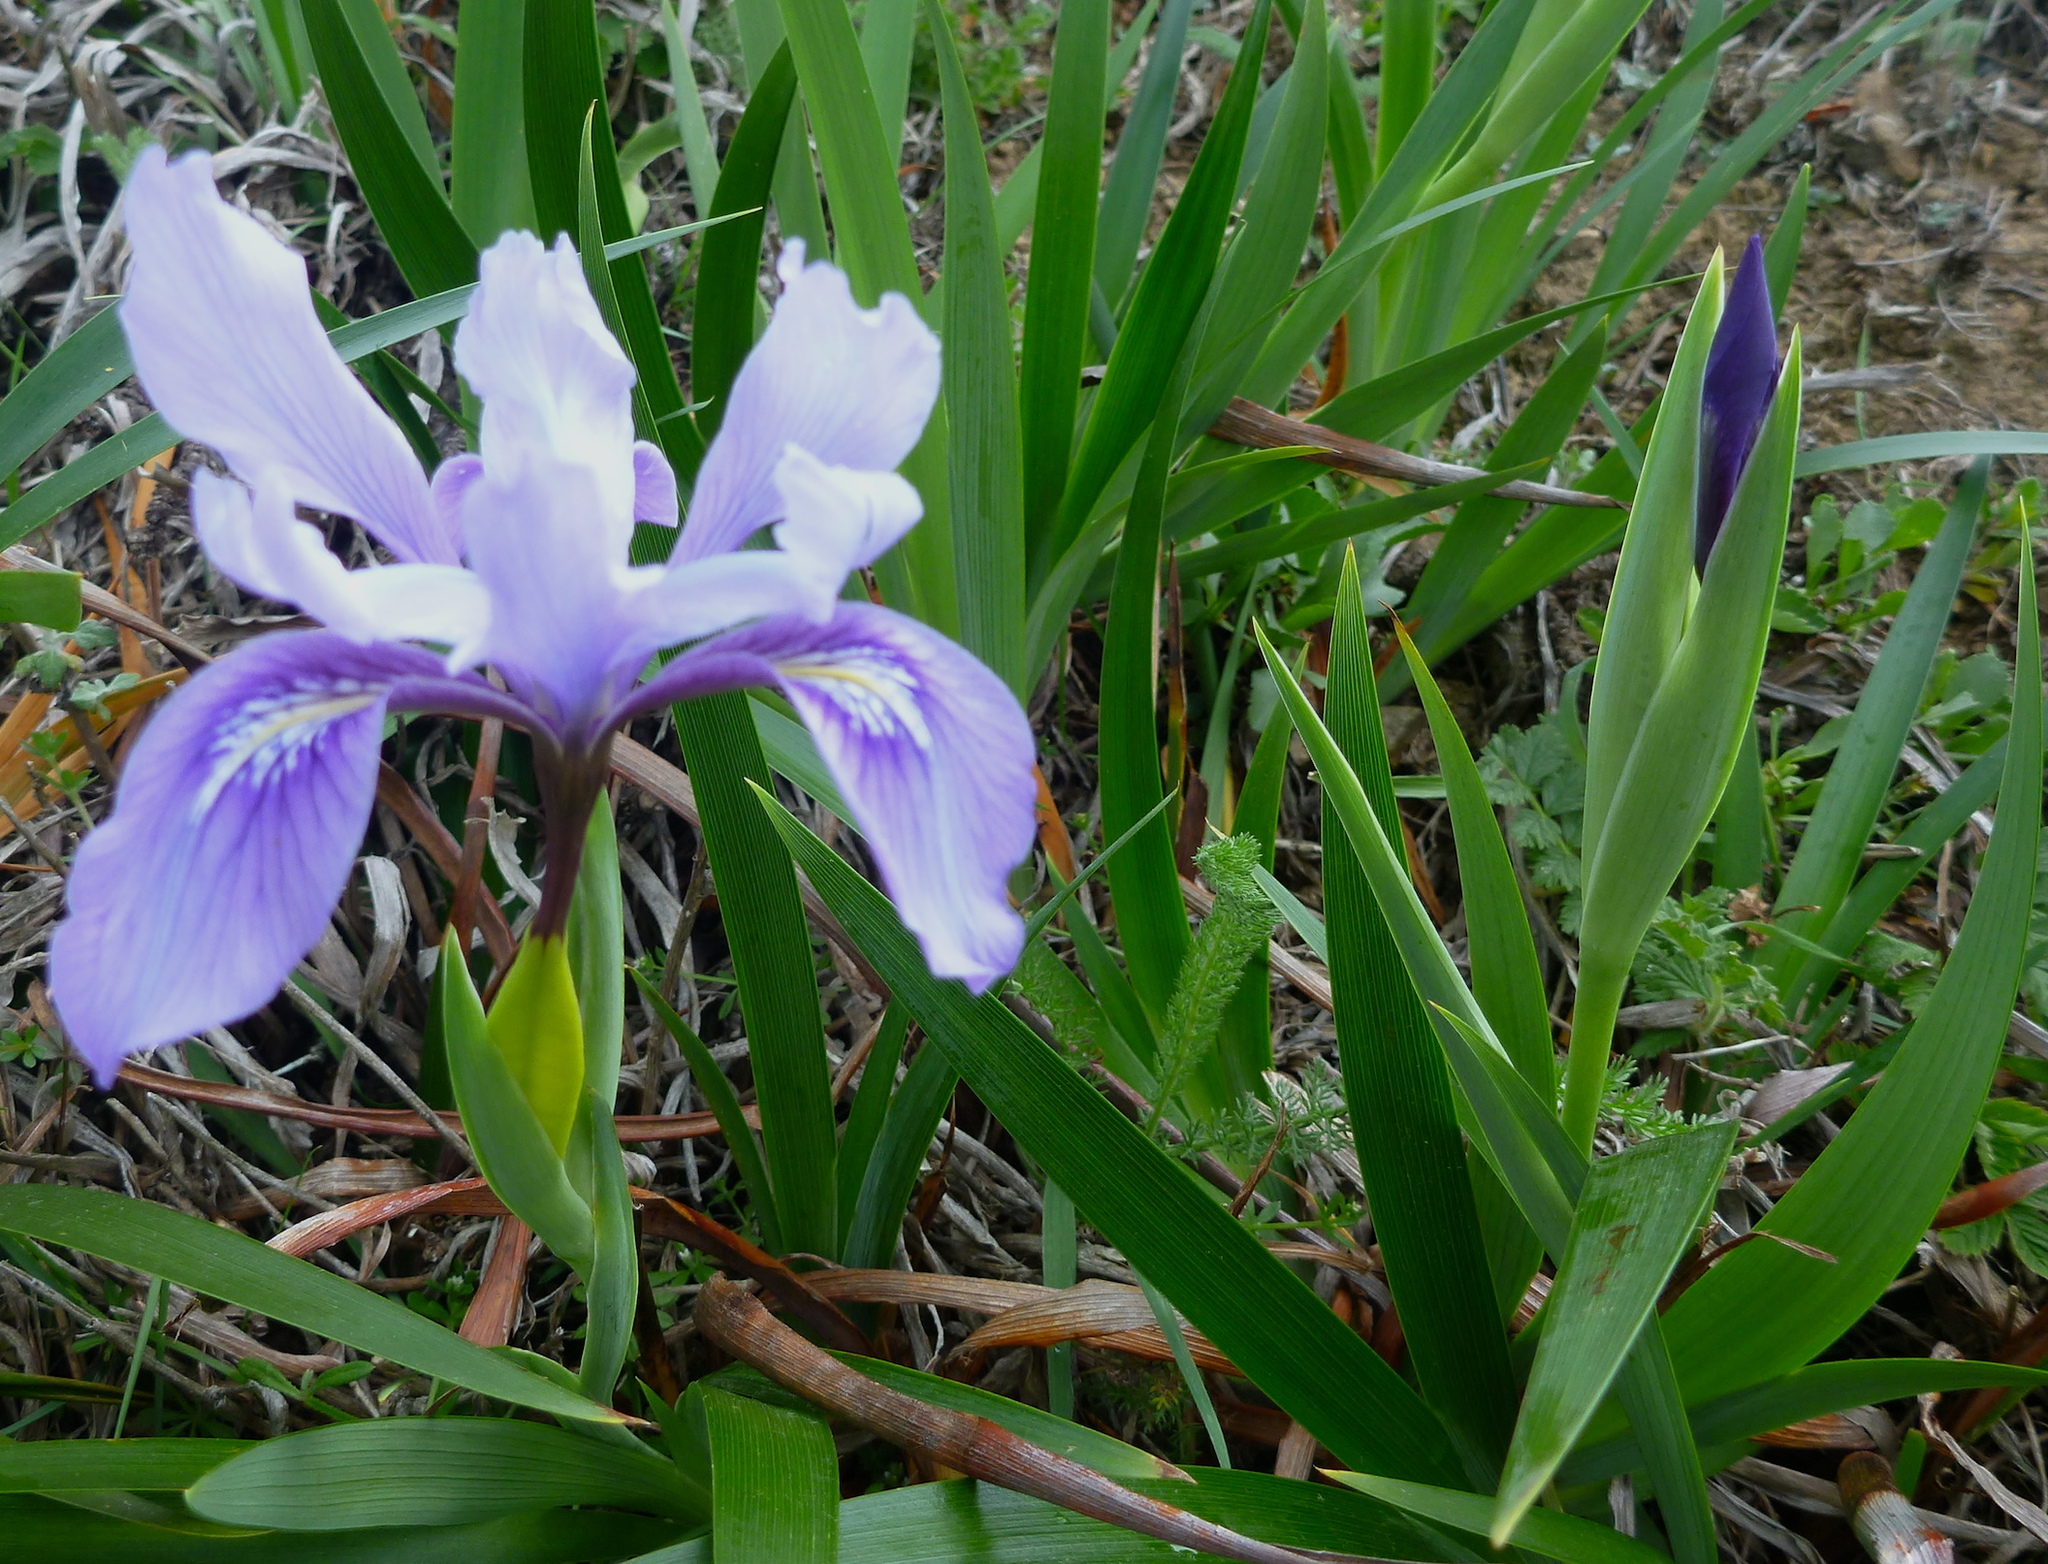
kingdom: Plantae
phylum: Tracheophyta
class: Liliopsida
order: Asparagales
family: Iridaceae
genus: Iris
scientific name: Iris douglasiana
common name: Marin iris
